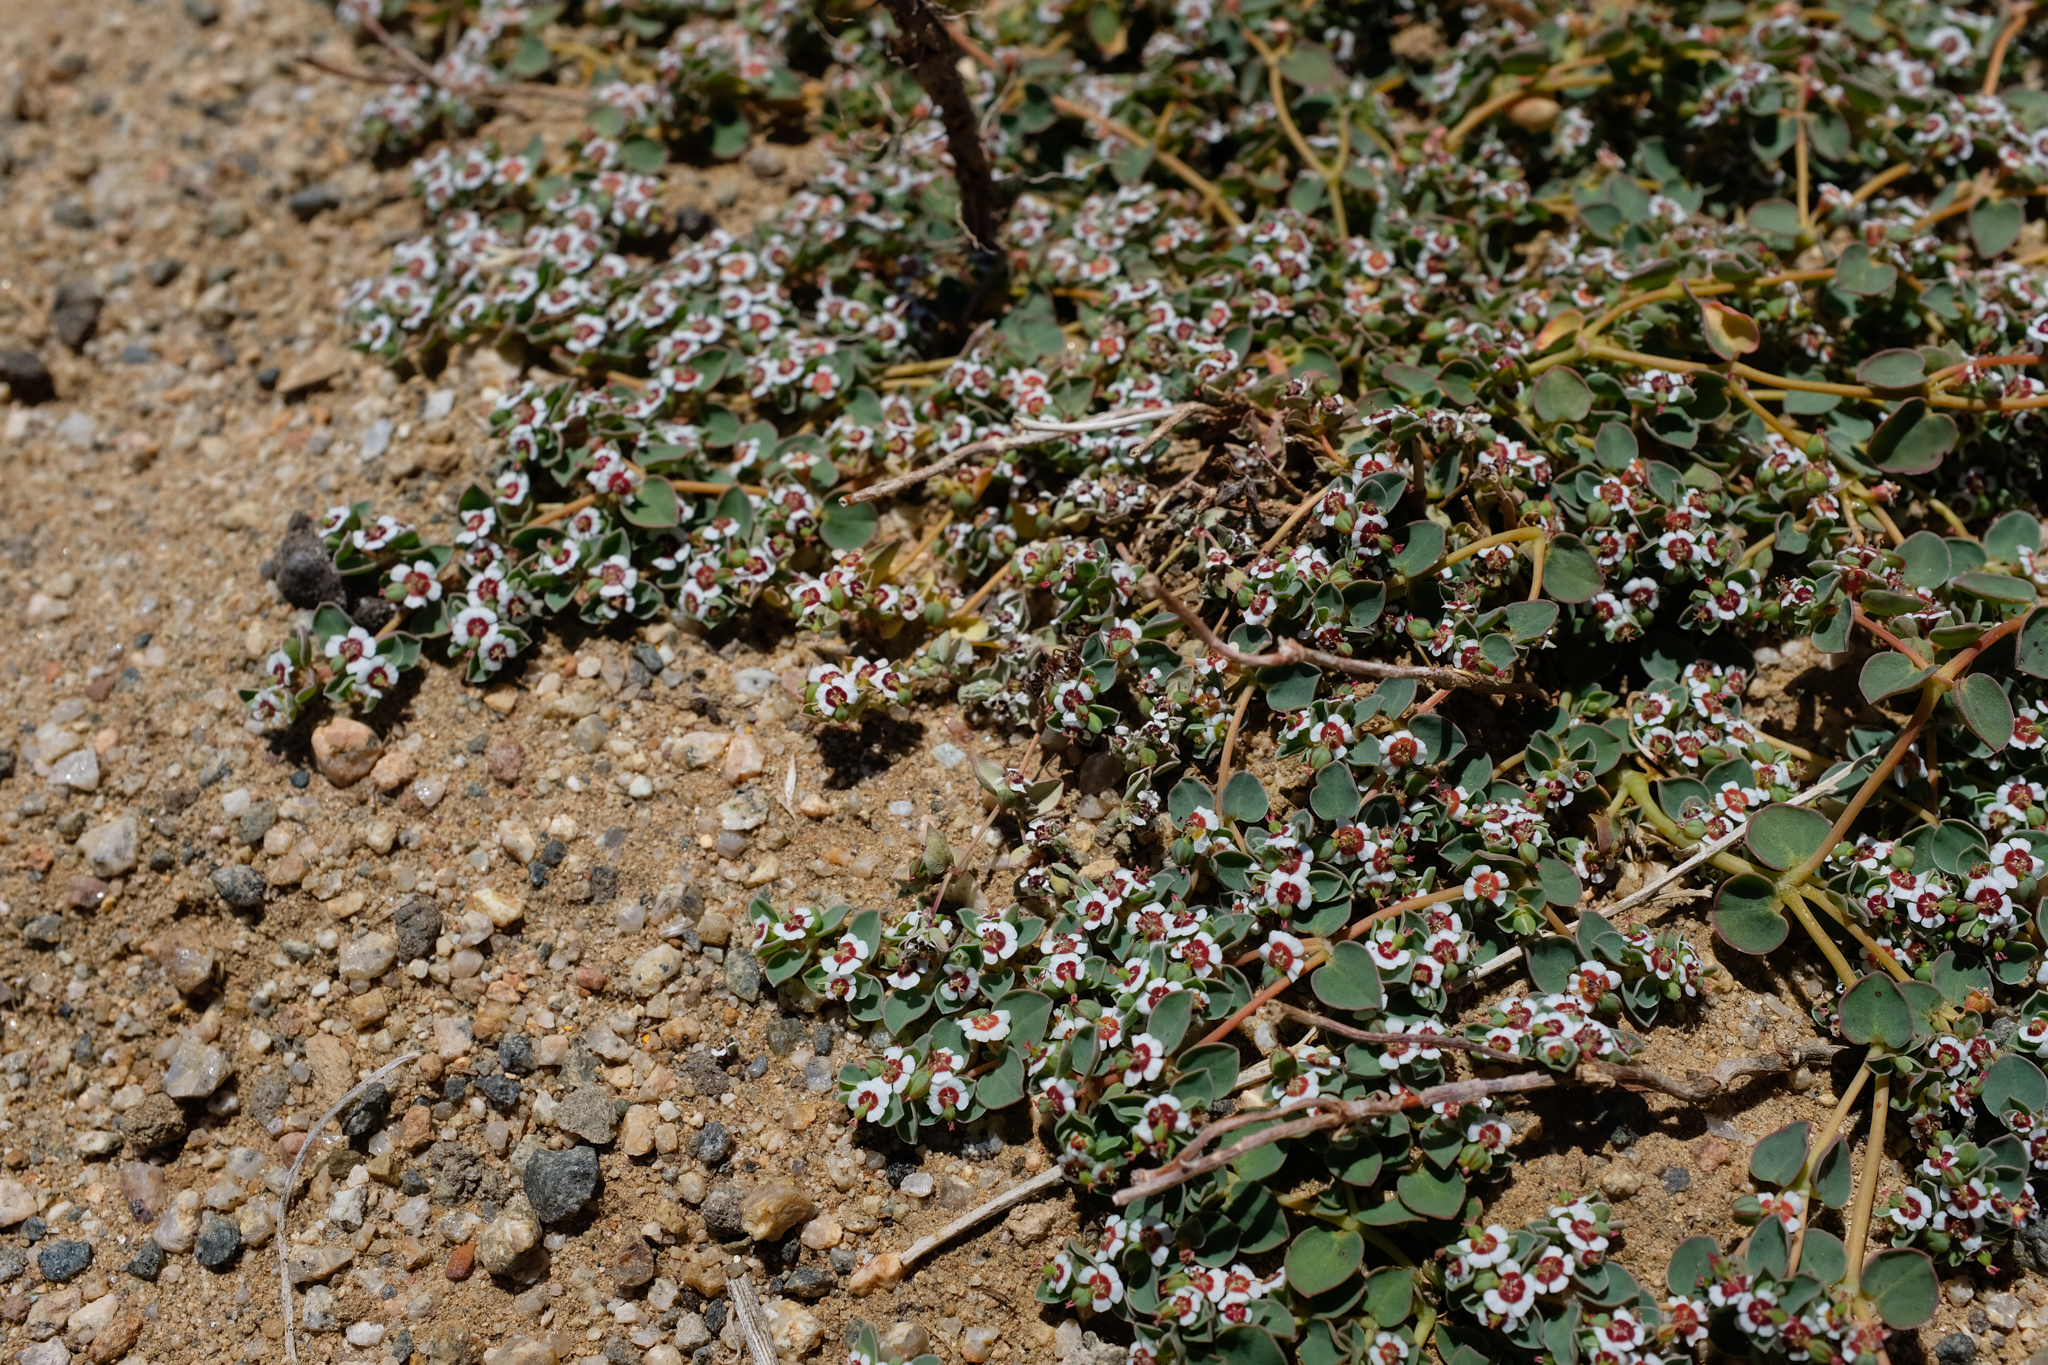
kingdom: Plantae
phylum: Tracheophyta
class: Magnoliopsida
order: Malpighiales
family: Euphorbiaceae
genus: Euphorbia
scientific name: Euphorbia albomarginata
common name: Whitemargin sandmat
